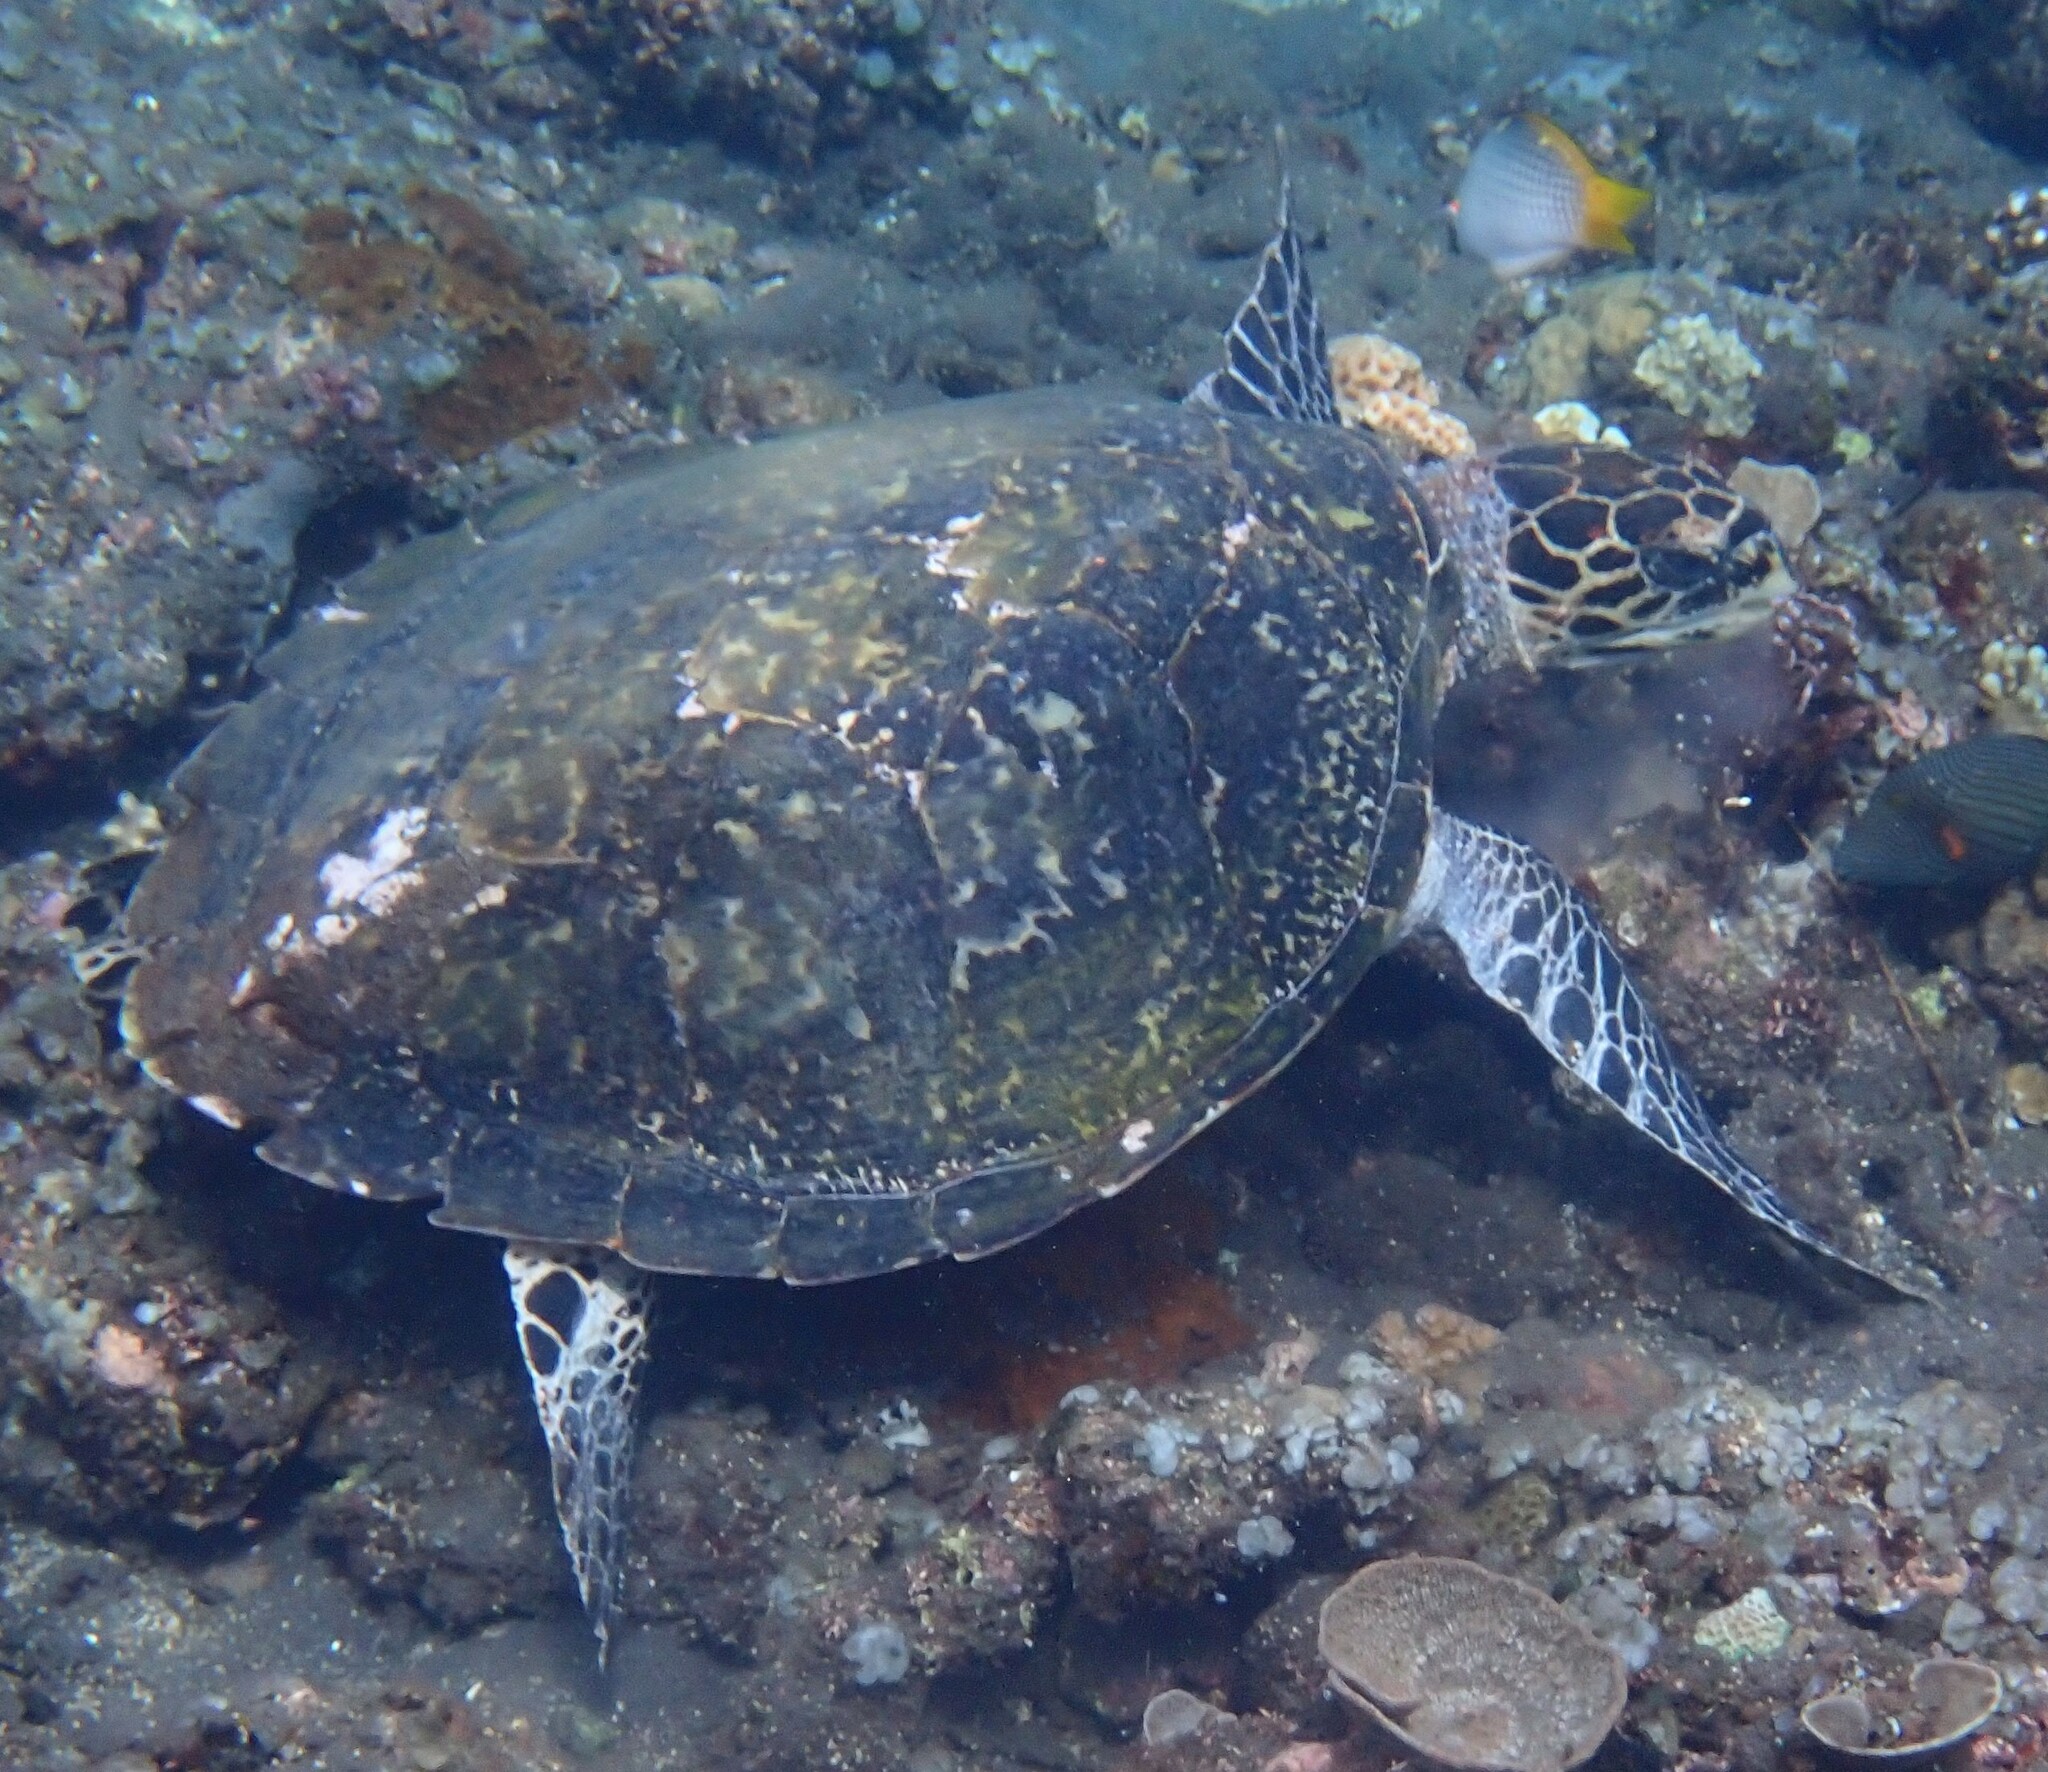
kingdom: Animalia
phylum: Chordata
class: Testudines
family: Cheloniidae
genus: Eretmochelys
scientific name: Eretmochelys imbricata
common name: Hawksbill turtle
